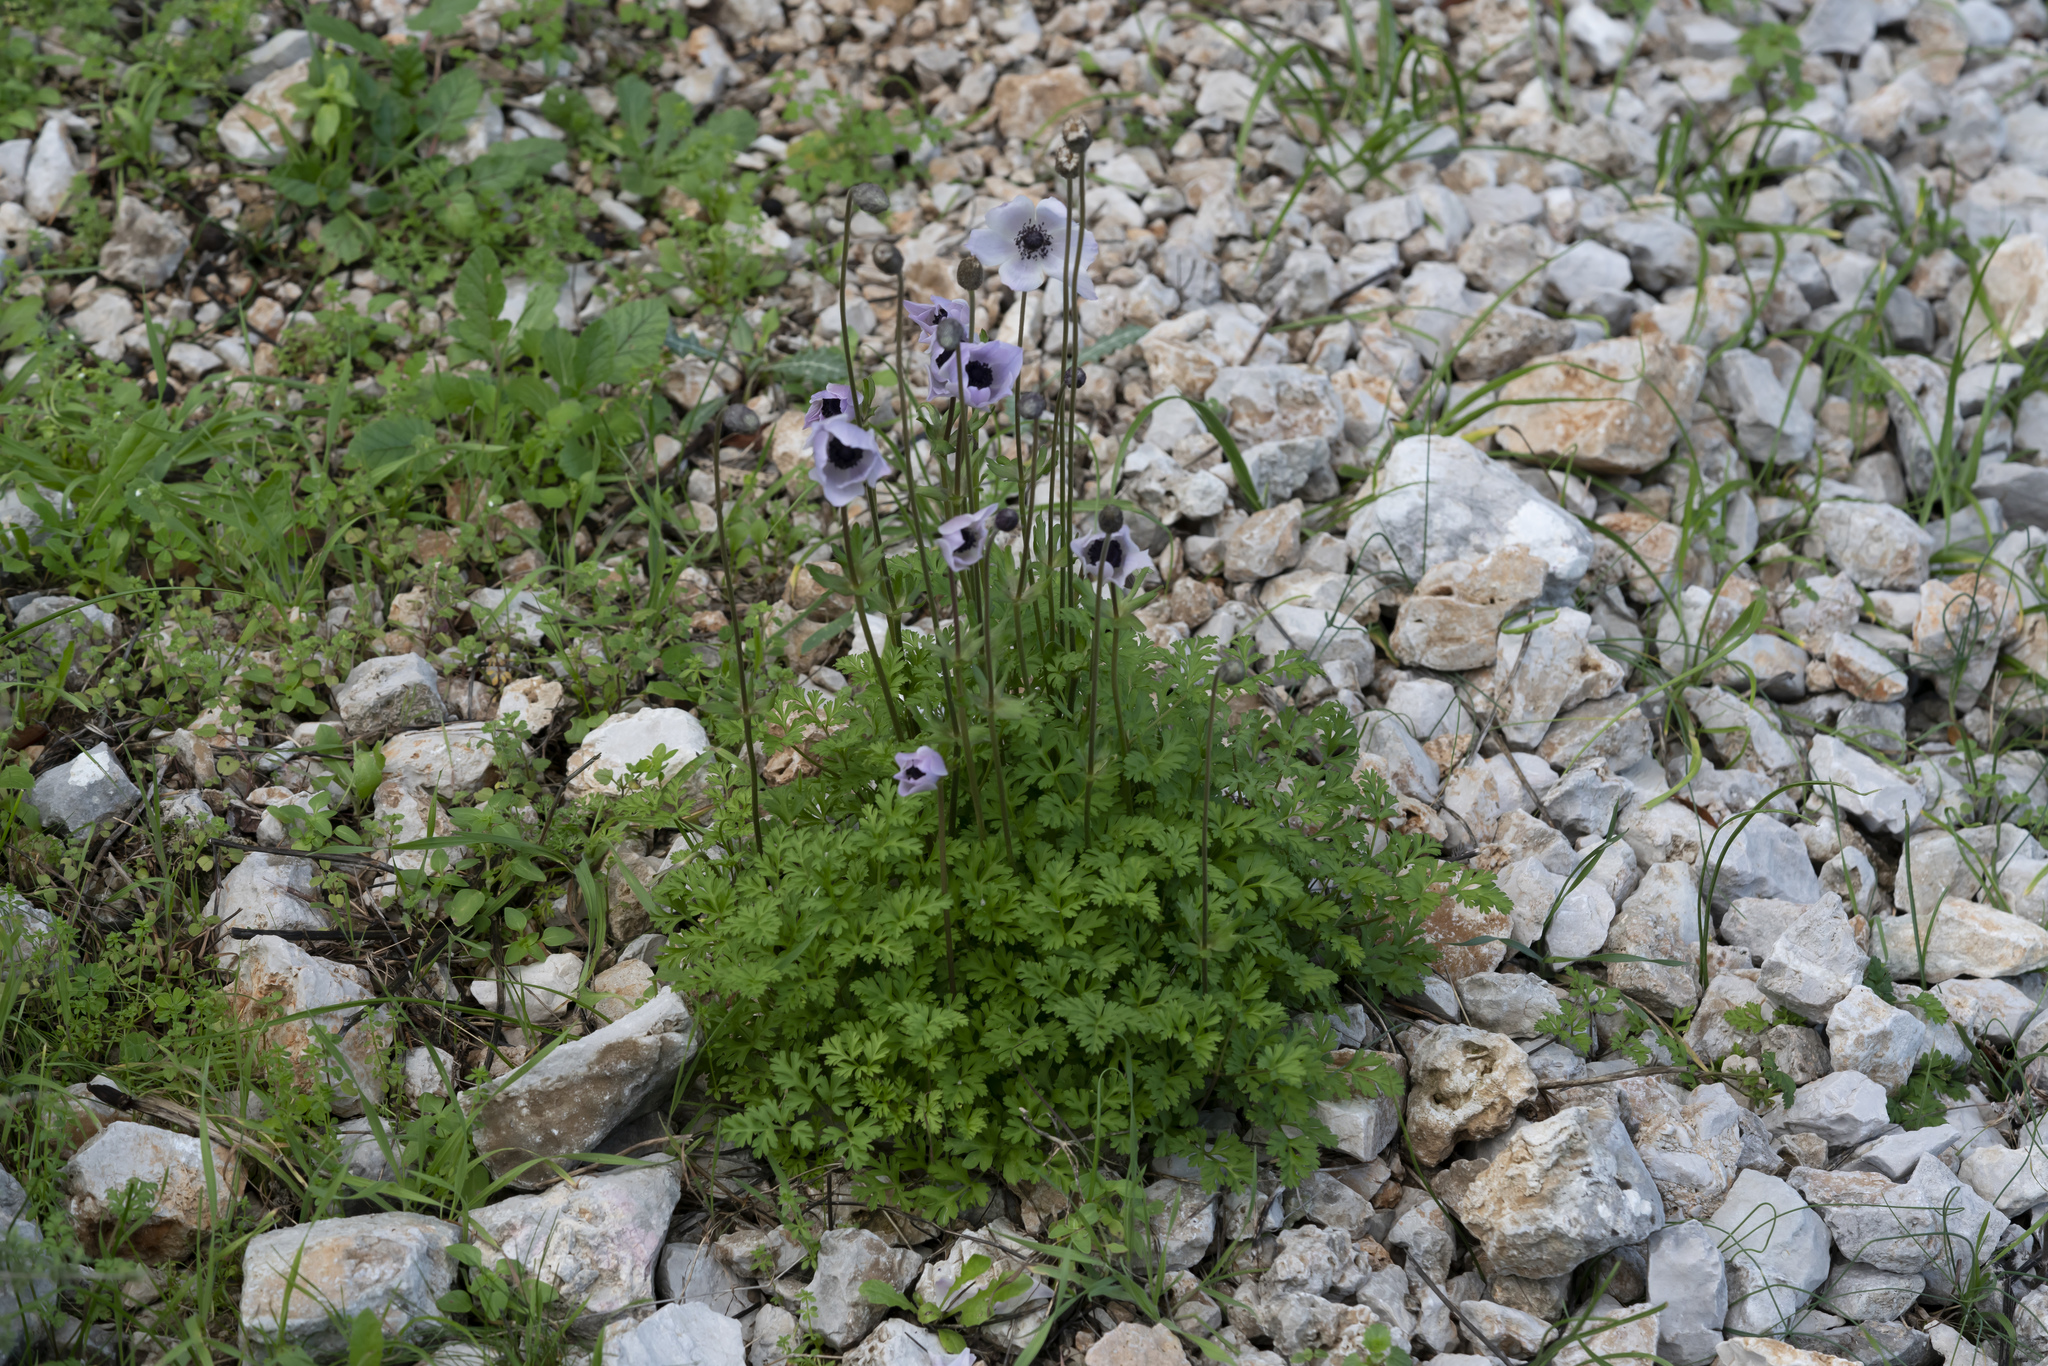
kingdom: Plantae
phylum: Tracheophyta
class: Magnoliopsida
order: Ranunculales
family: Ranunculaceae
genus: Anemone
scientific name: Anemone coronaria
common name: Poppy anemone
